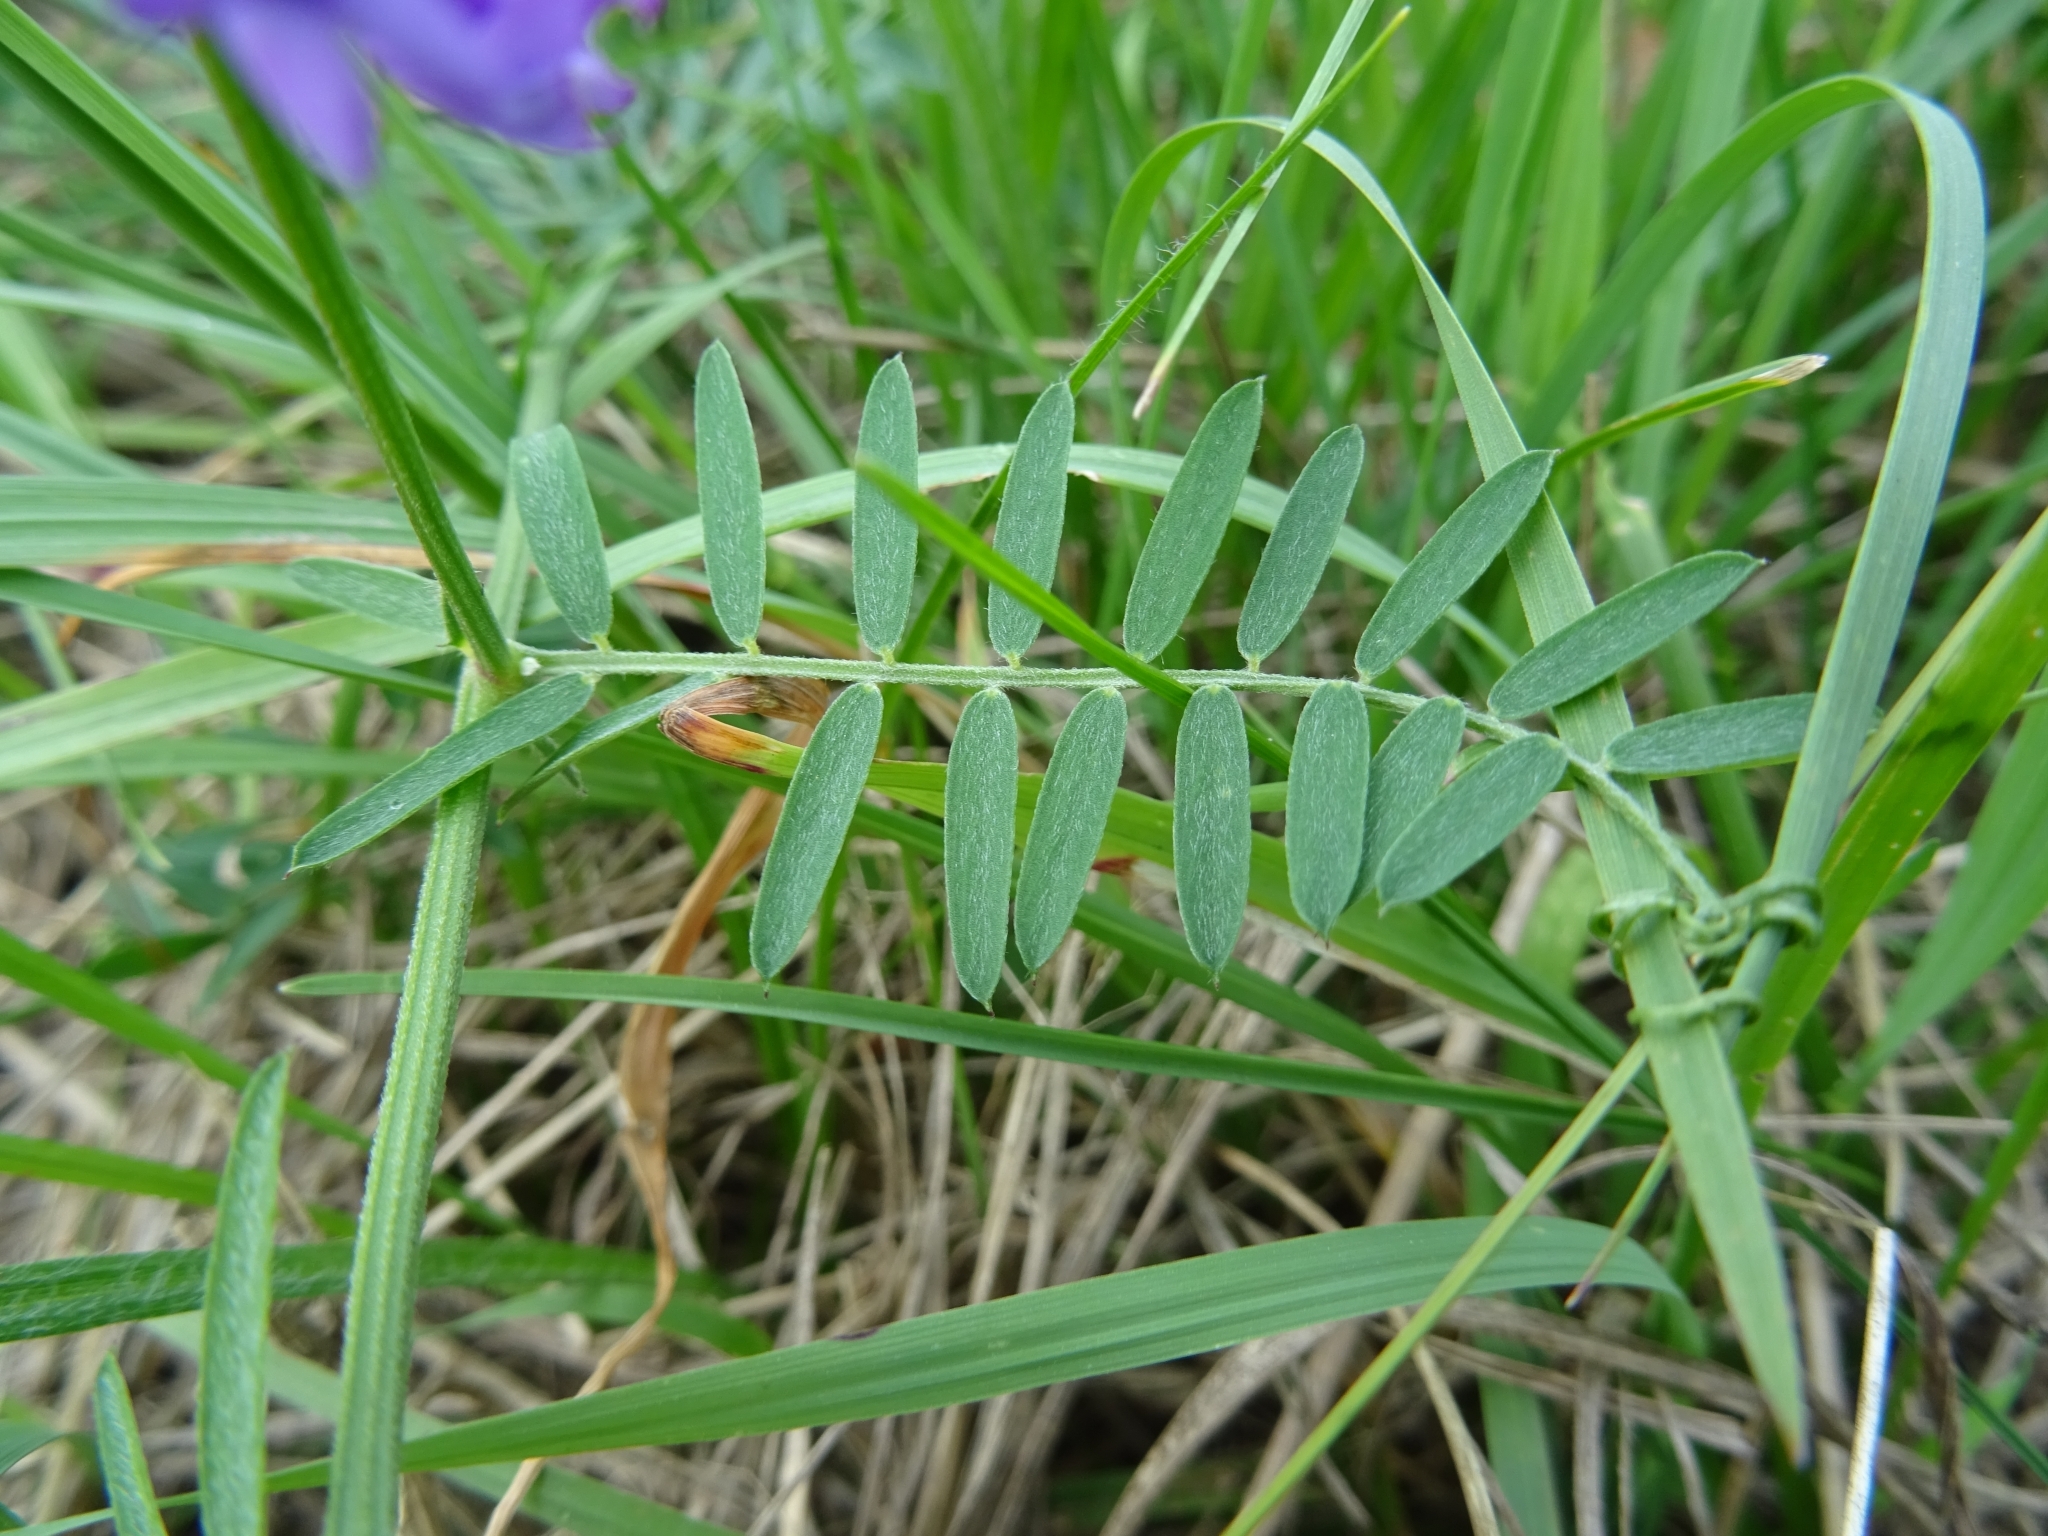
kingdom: Plantae
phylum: Tracheophyta
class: Magnoliopsida
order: Fabales
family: Fabaceae
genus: Vicia
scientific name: Vicia cracca
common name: Bird vetch
